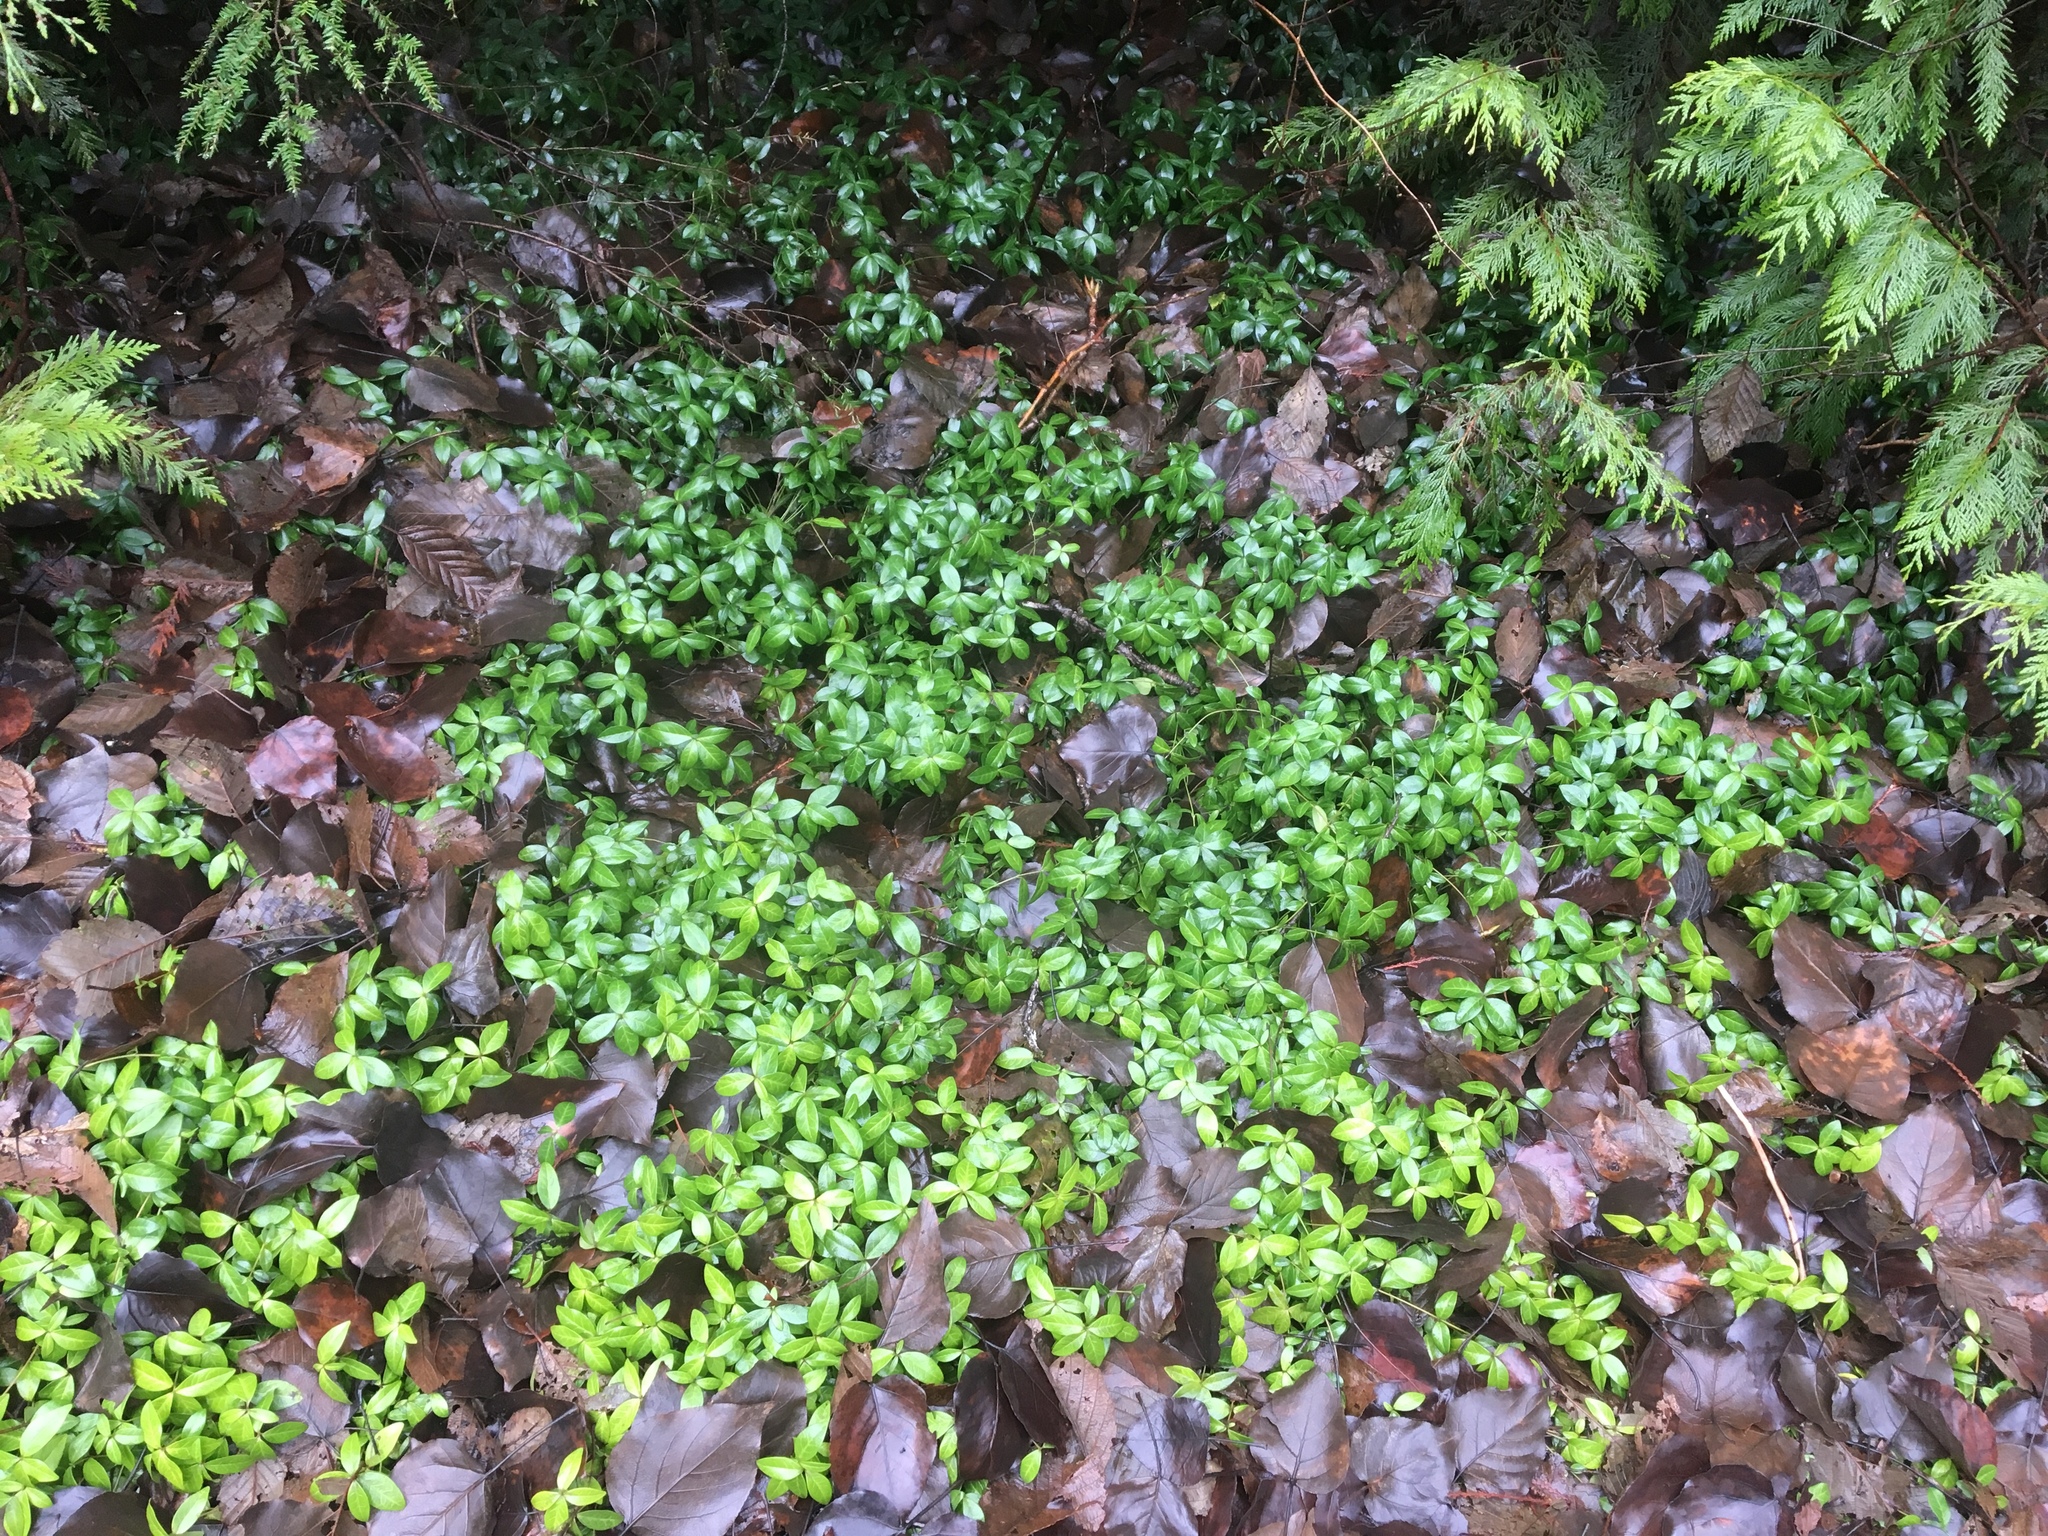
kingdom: Plantae
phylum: Tracheophyta
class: Magnoliopsida
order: Gentianales
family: Apocynaceae
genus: Vinca
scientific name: Vinca minor
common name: Lesser periwinkle
